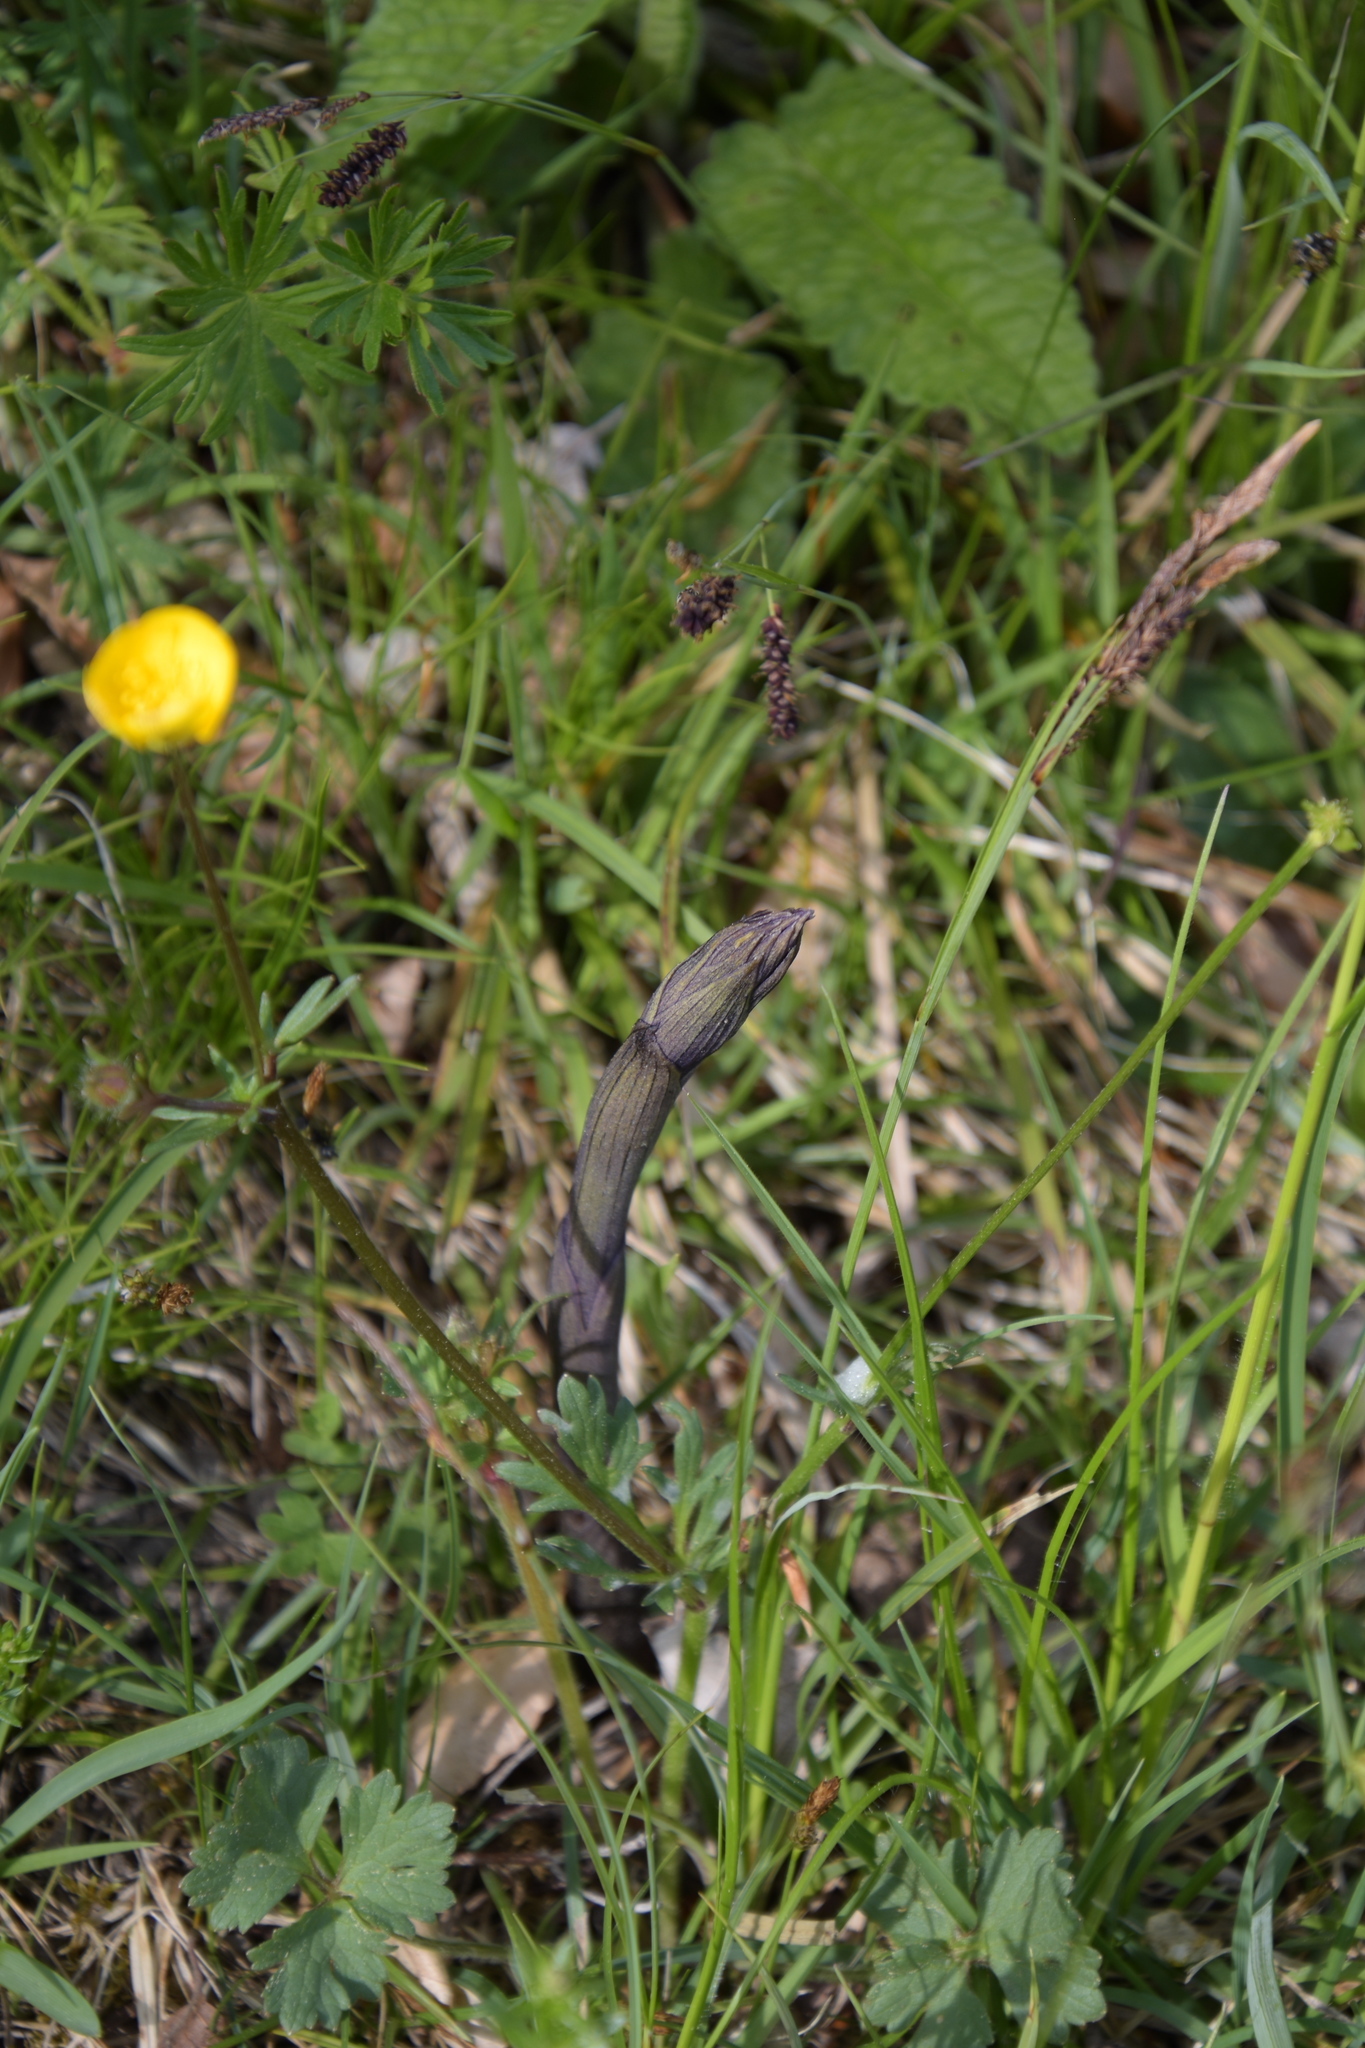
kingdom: Plantae
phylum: Tracheophyta
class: Liliopsida
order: Asparagales
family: Orchidaceae
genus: Limodorum
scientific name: Limodorum abortivum
